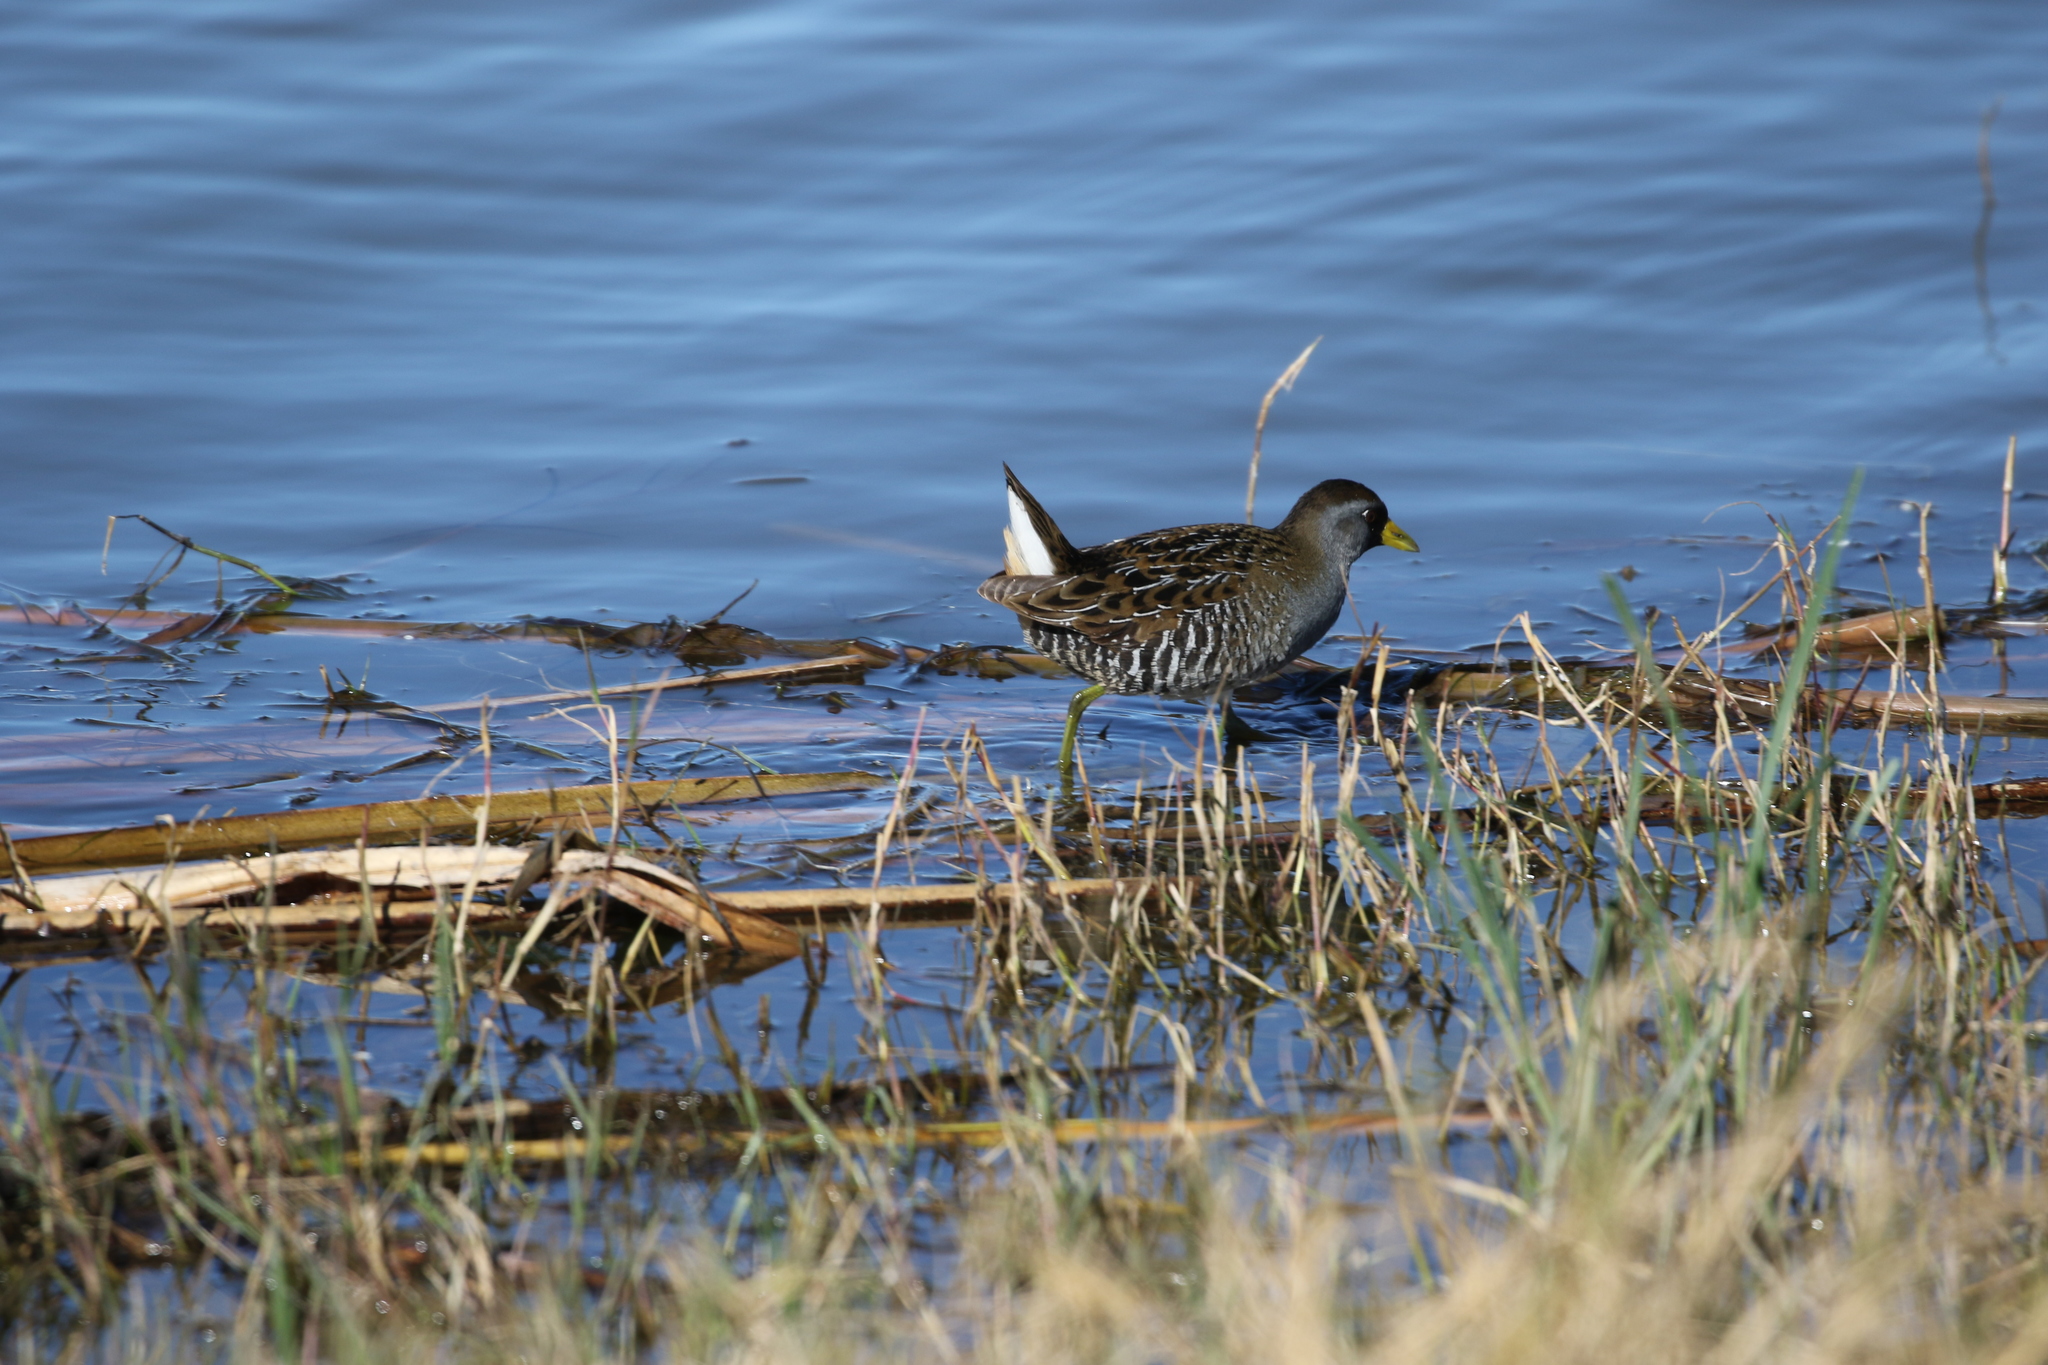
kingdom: Animalia
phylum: Chordata
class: Aves
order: Gruiformes
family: Rallidae
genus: Porzana
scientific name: Porzana carolina
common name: Sora
